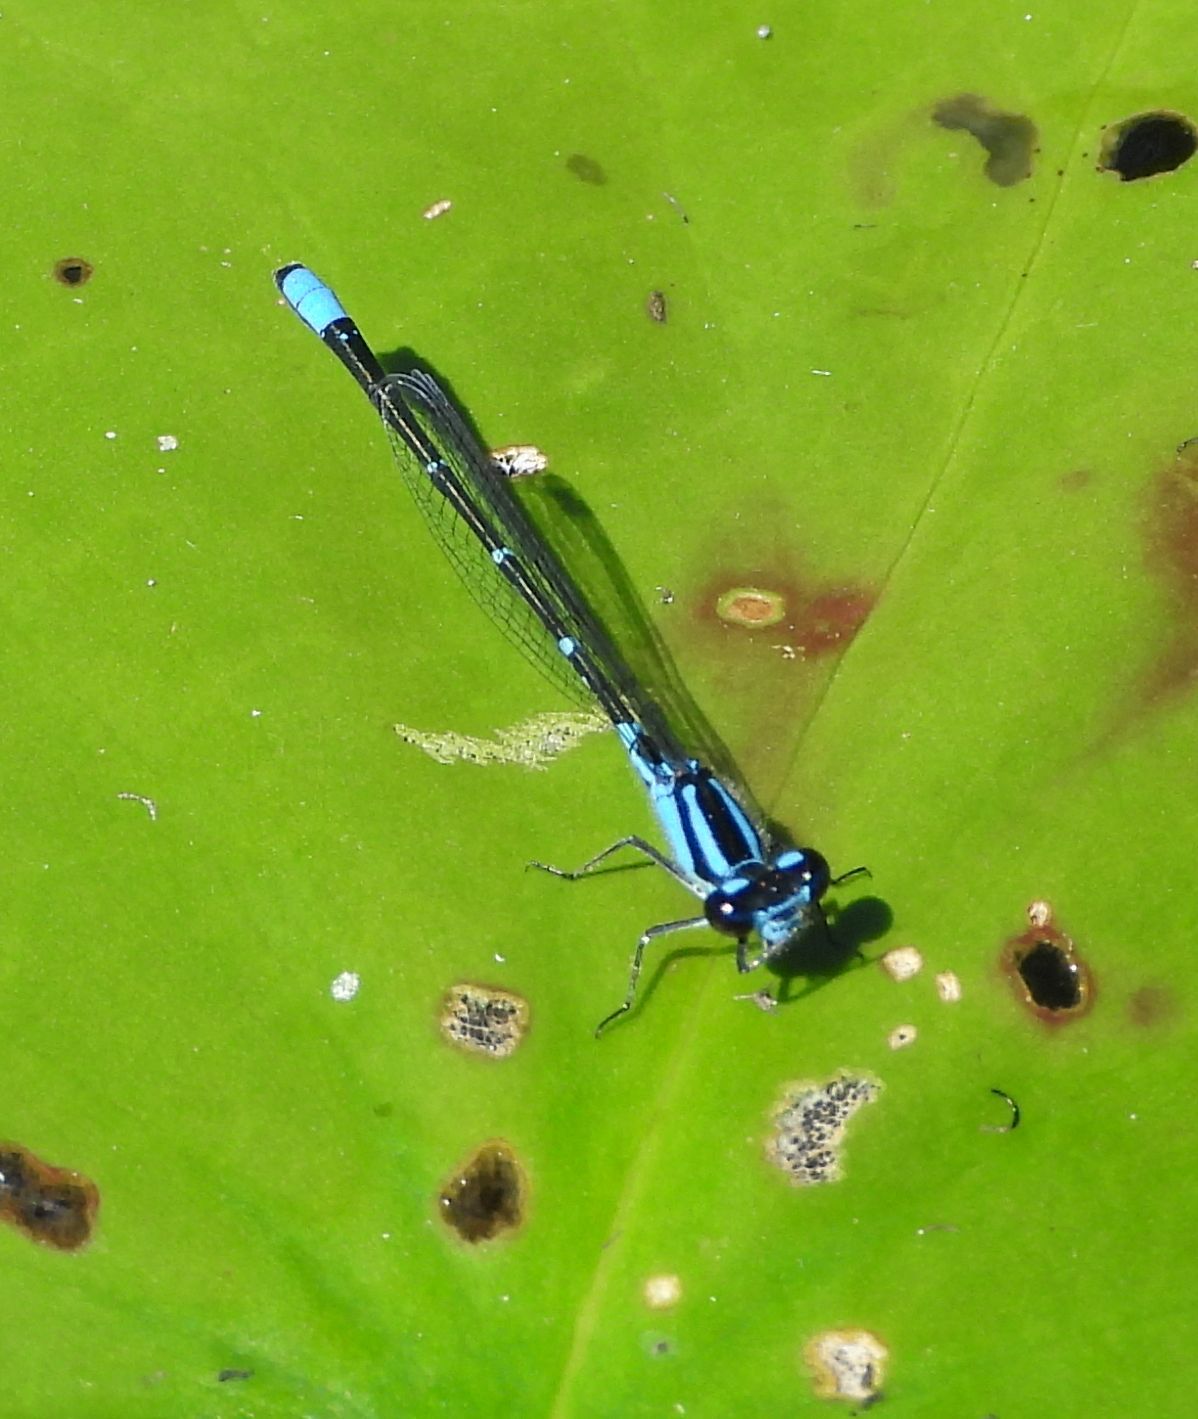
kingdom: Animalia
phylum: Arthropoda
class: Insecta
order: Odonata
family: Coenagrionidae
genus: Enallagma
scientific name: Enallagma geminatum
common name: Skimming bluet
